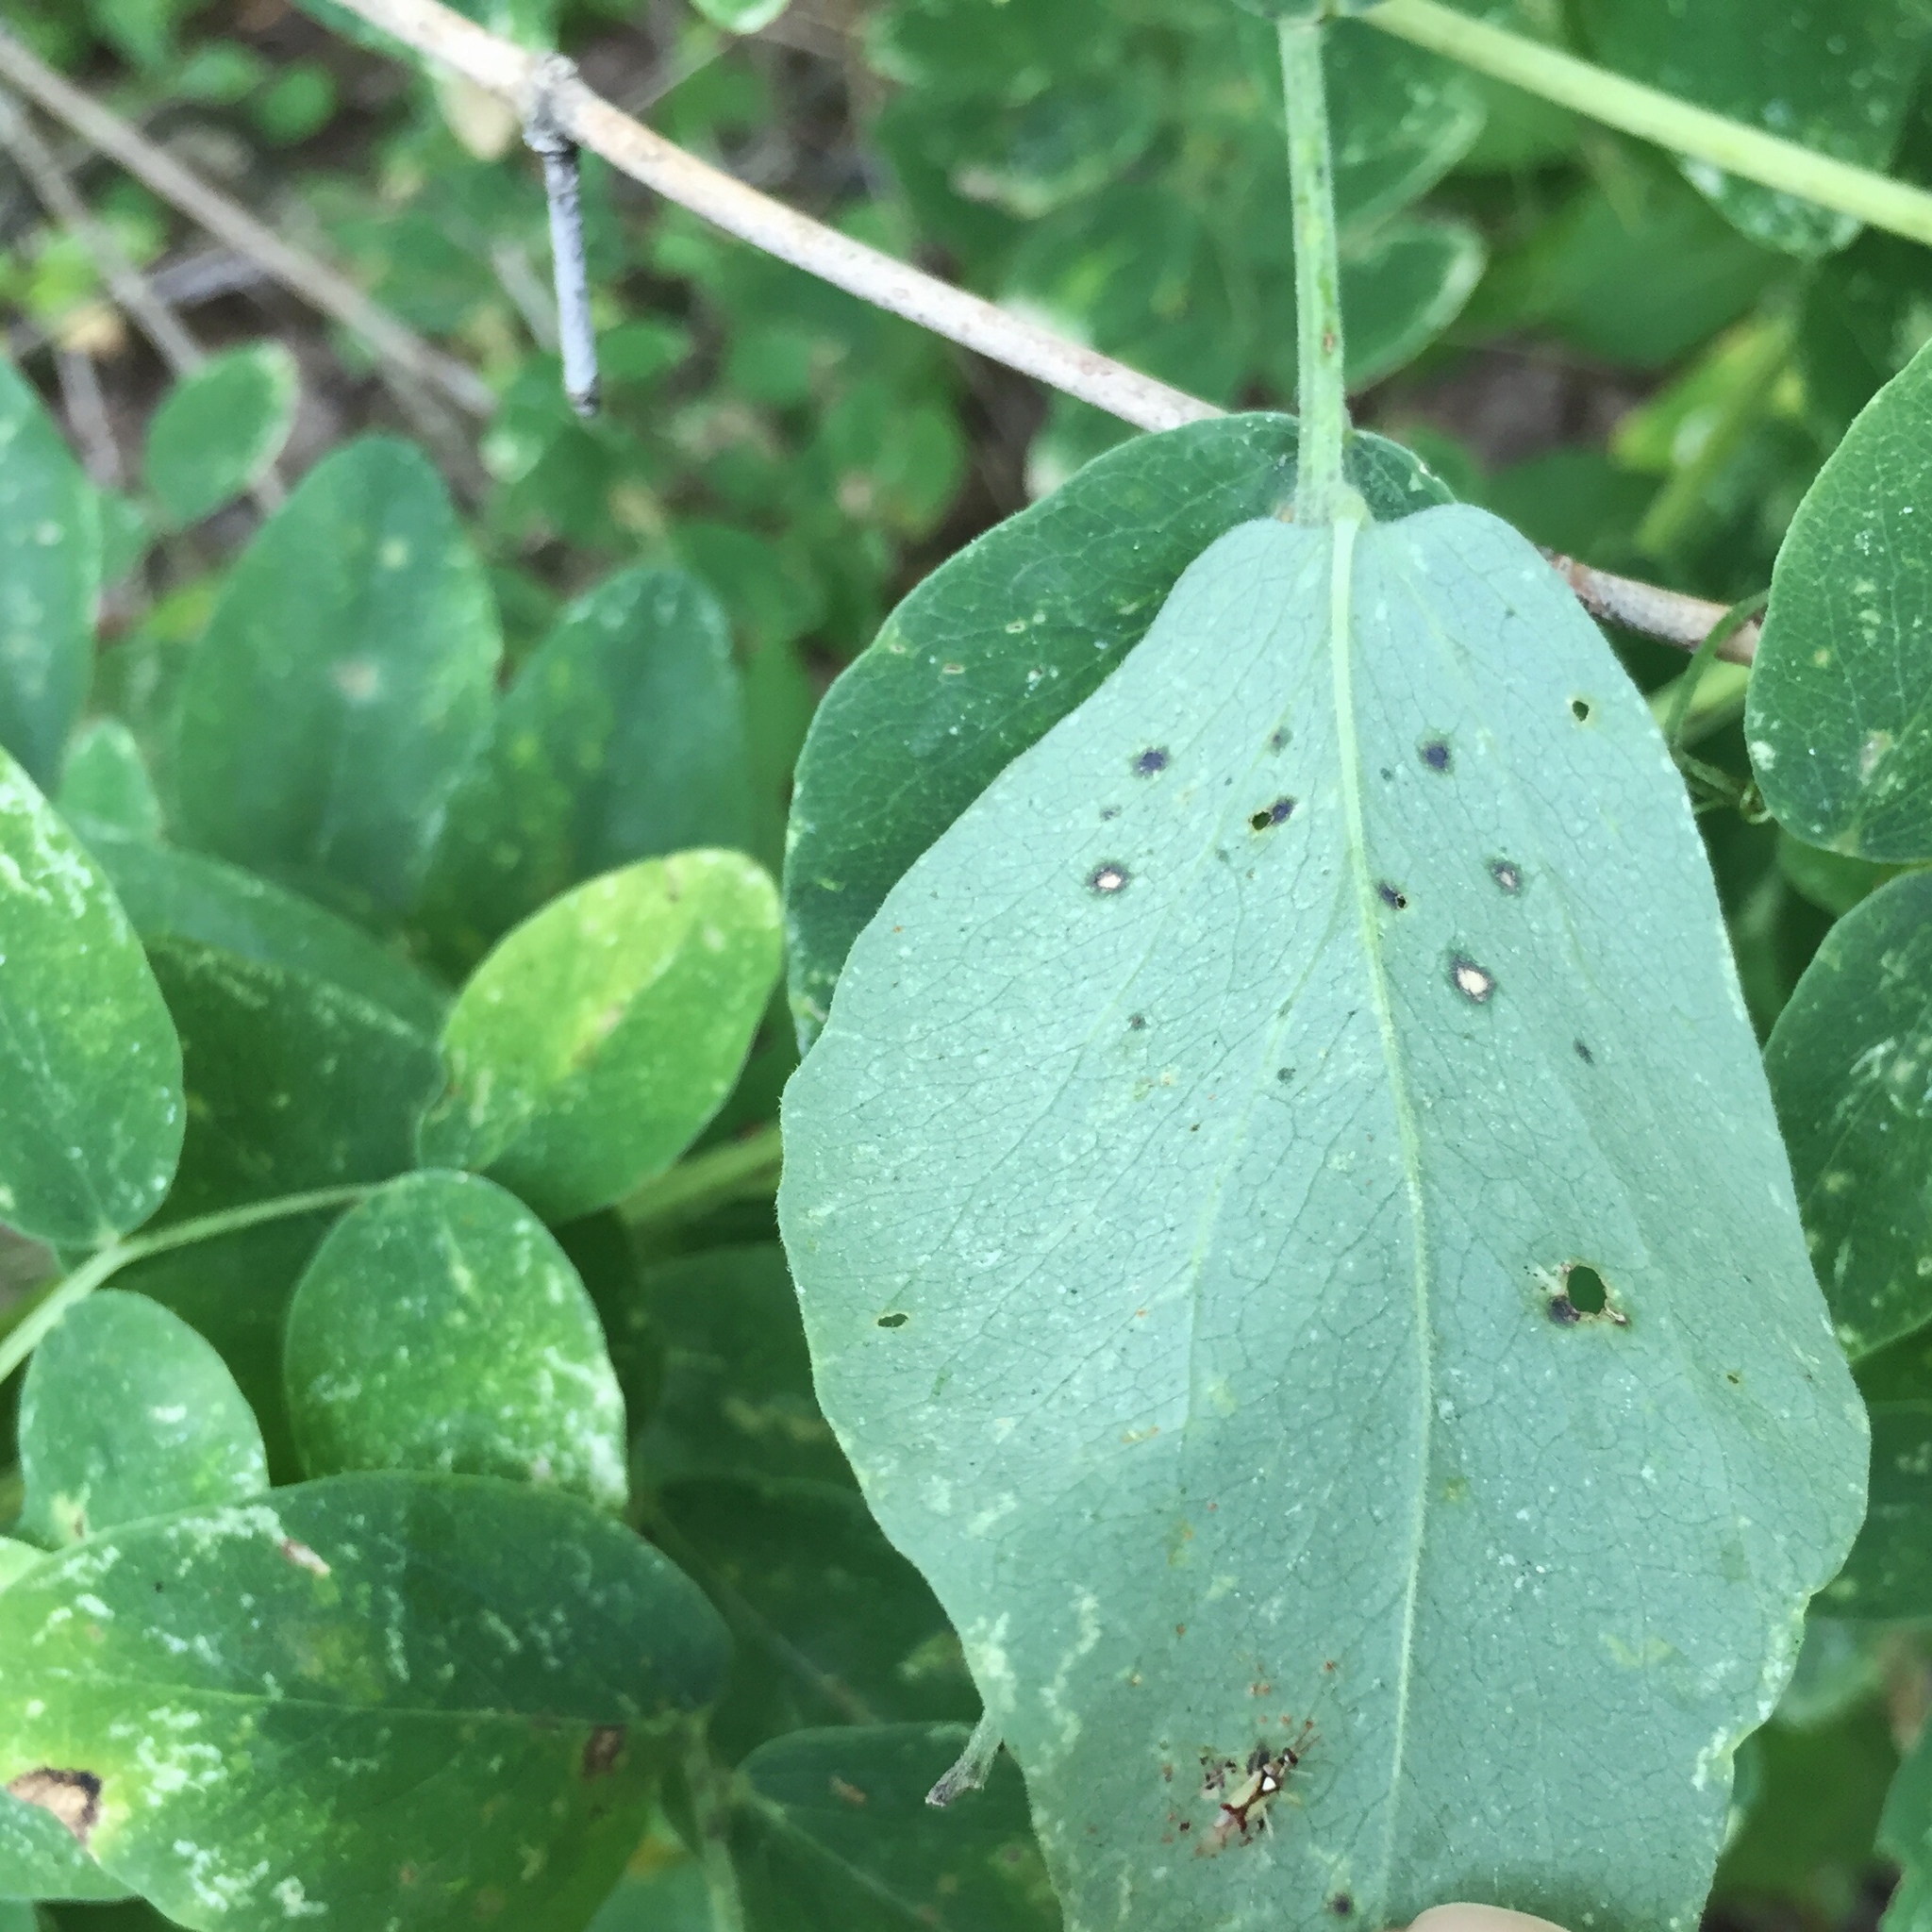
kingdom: Plantae
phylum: Tracheophyta
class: Magnoliopsida
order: Fabales
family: Fabaceae
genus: Lathyrus
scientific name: Lathyrus venosus
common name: Forest-pea
